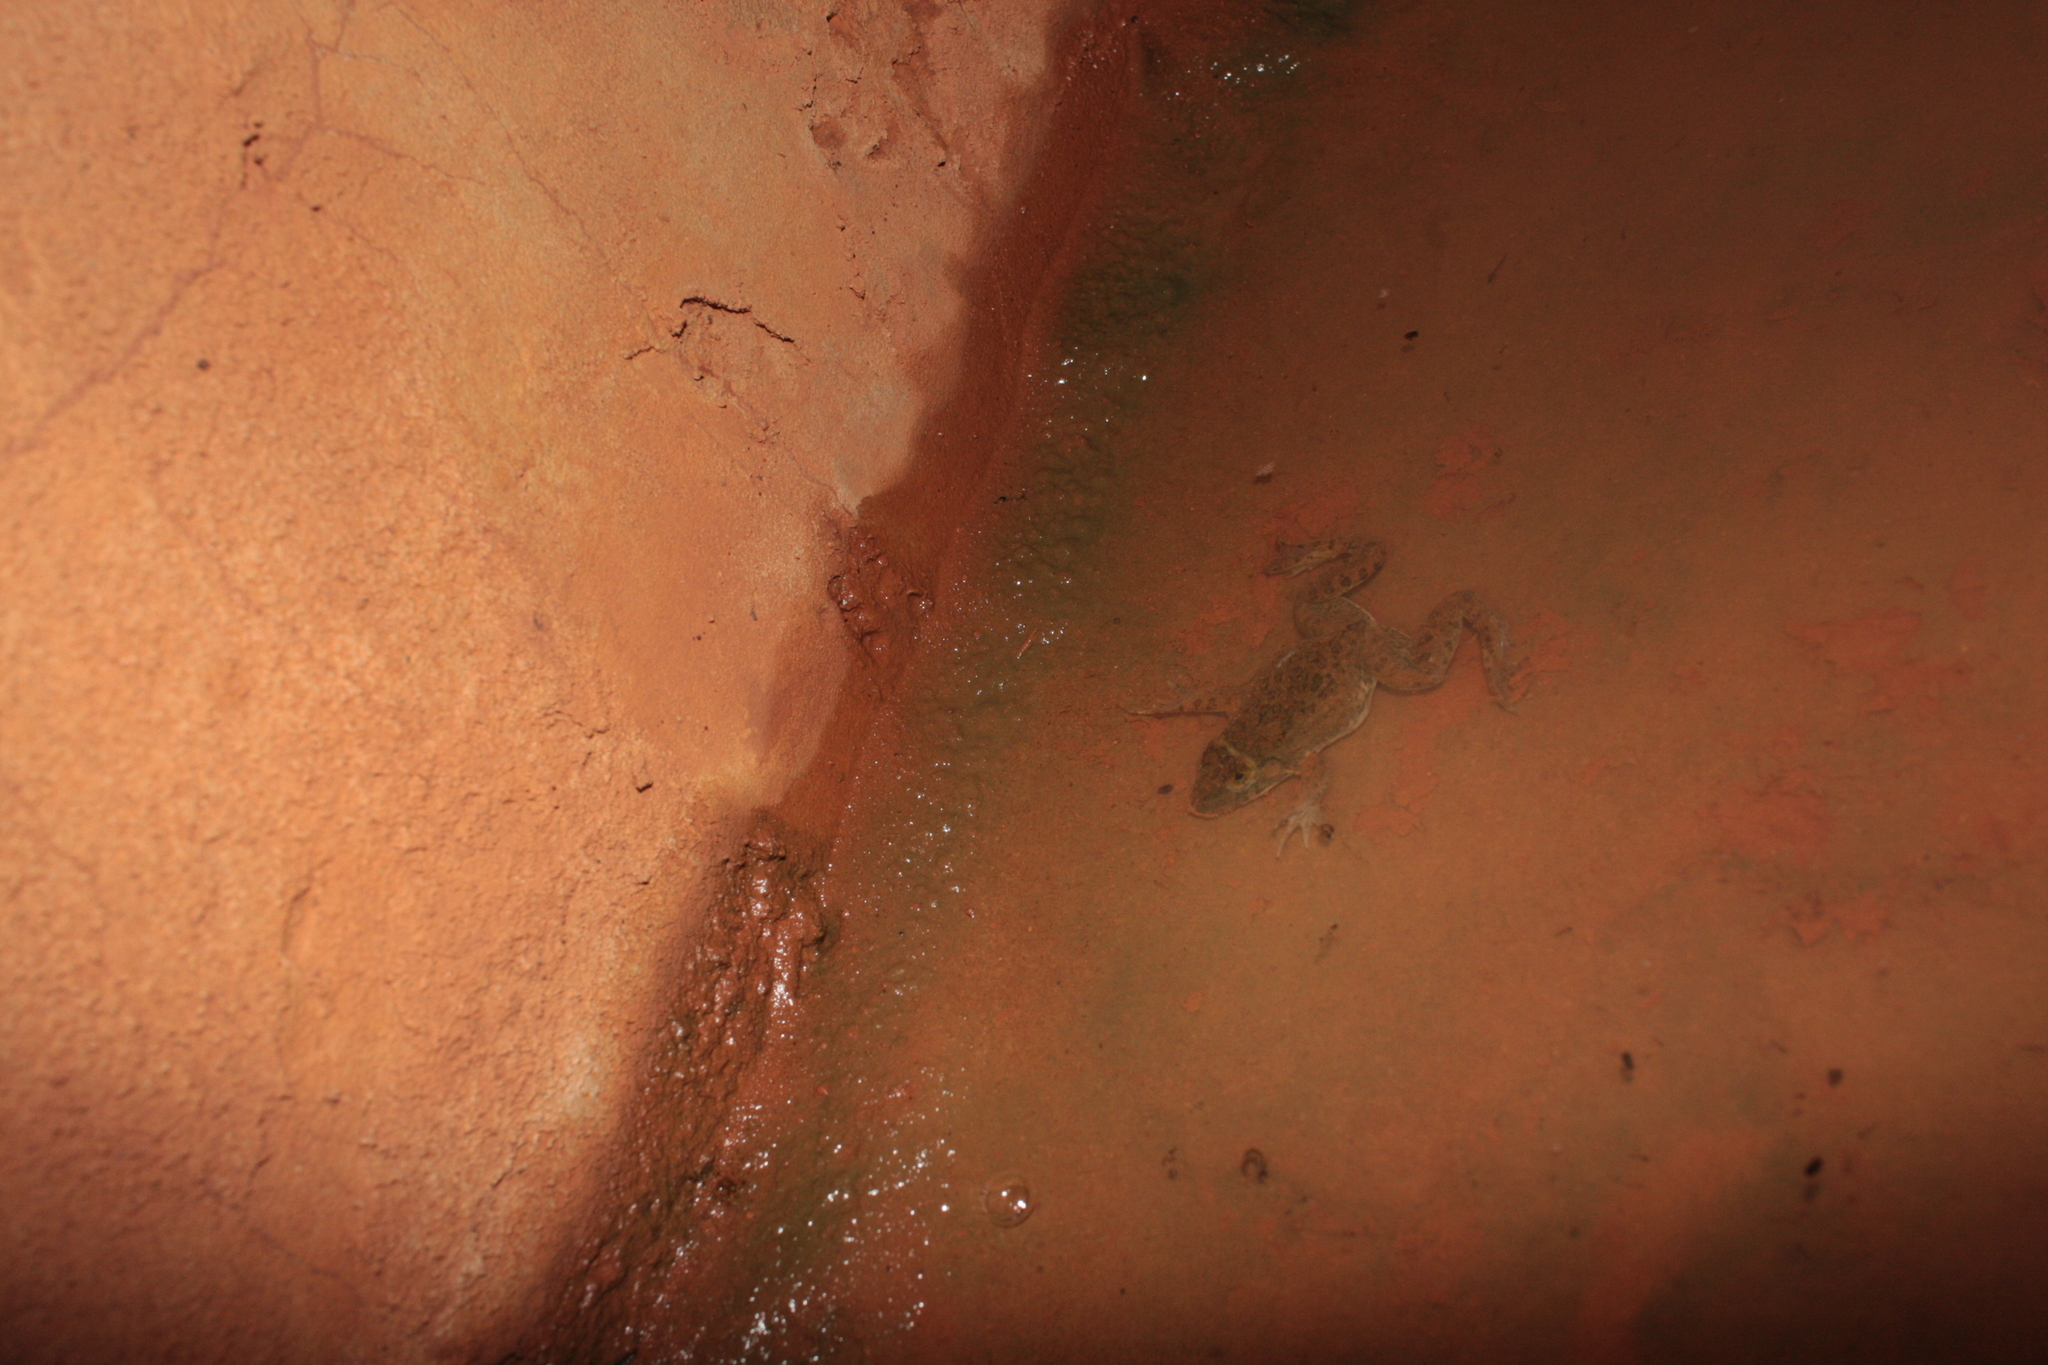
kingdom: Animalia
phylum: Chordata
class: Amphibia
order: Anura
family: Dicroglossidae
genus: Hoplobatrachus
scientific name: Hoplobatrachus occipitalis
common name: Eastern groove-crowned bullfrog
